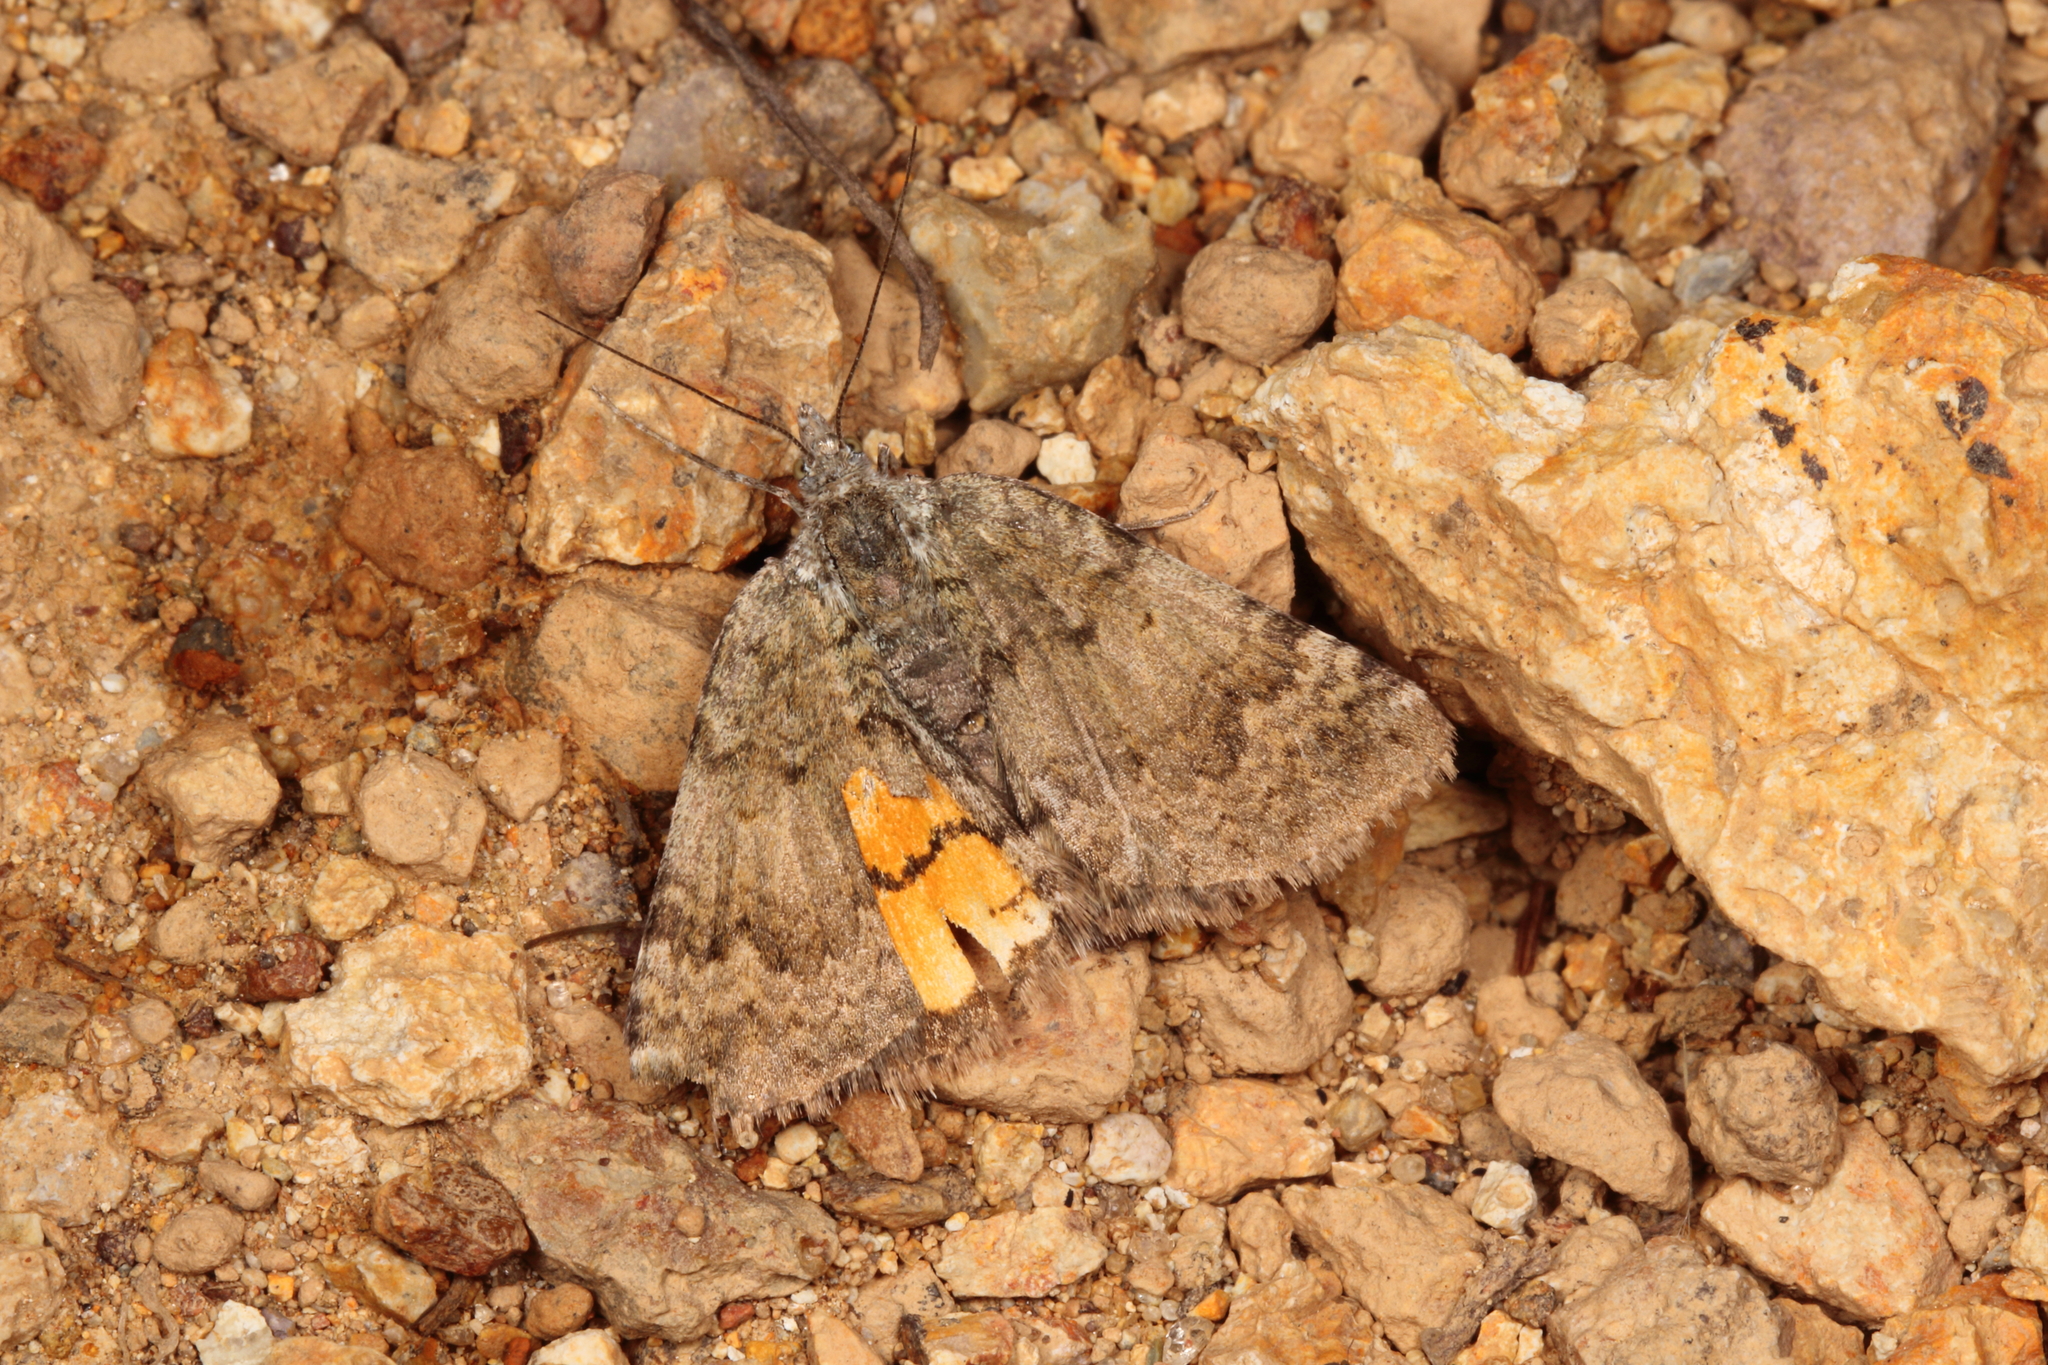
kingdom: Animalia
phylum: Arthropoda
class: Insecta
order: Lepidoptera
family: Geometridae
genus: Paranotoreas
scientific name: Paranotoreas brephosata
